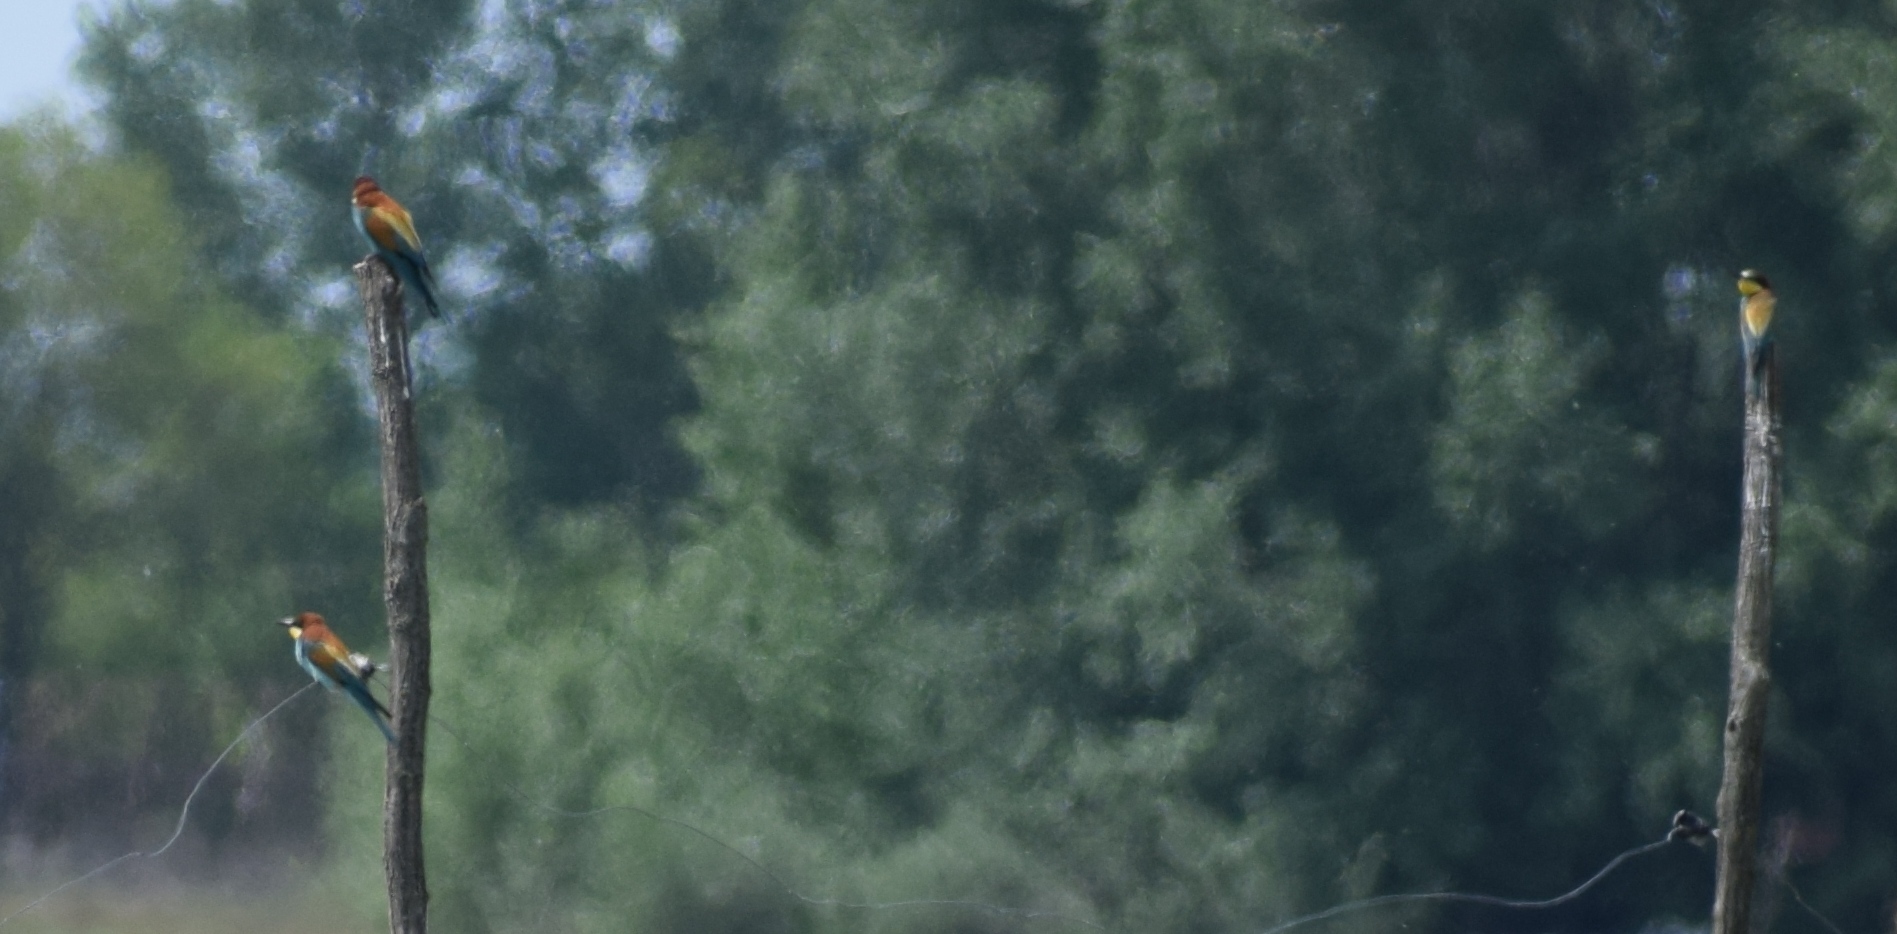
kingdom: Animalia
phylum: Chordata
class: Aves
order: Coraciiformes
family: Meropidae
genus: Merops
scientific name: Merops apiaster
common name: European bee-eater
